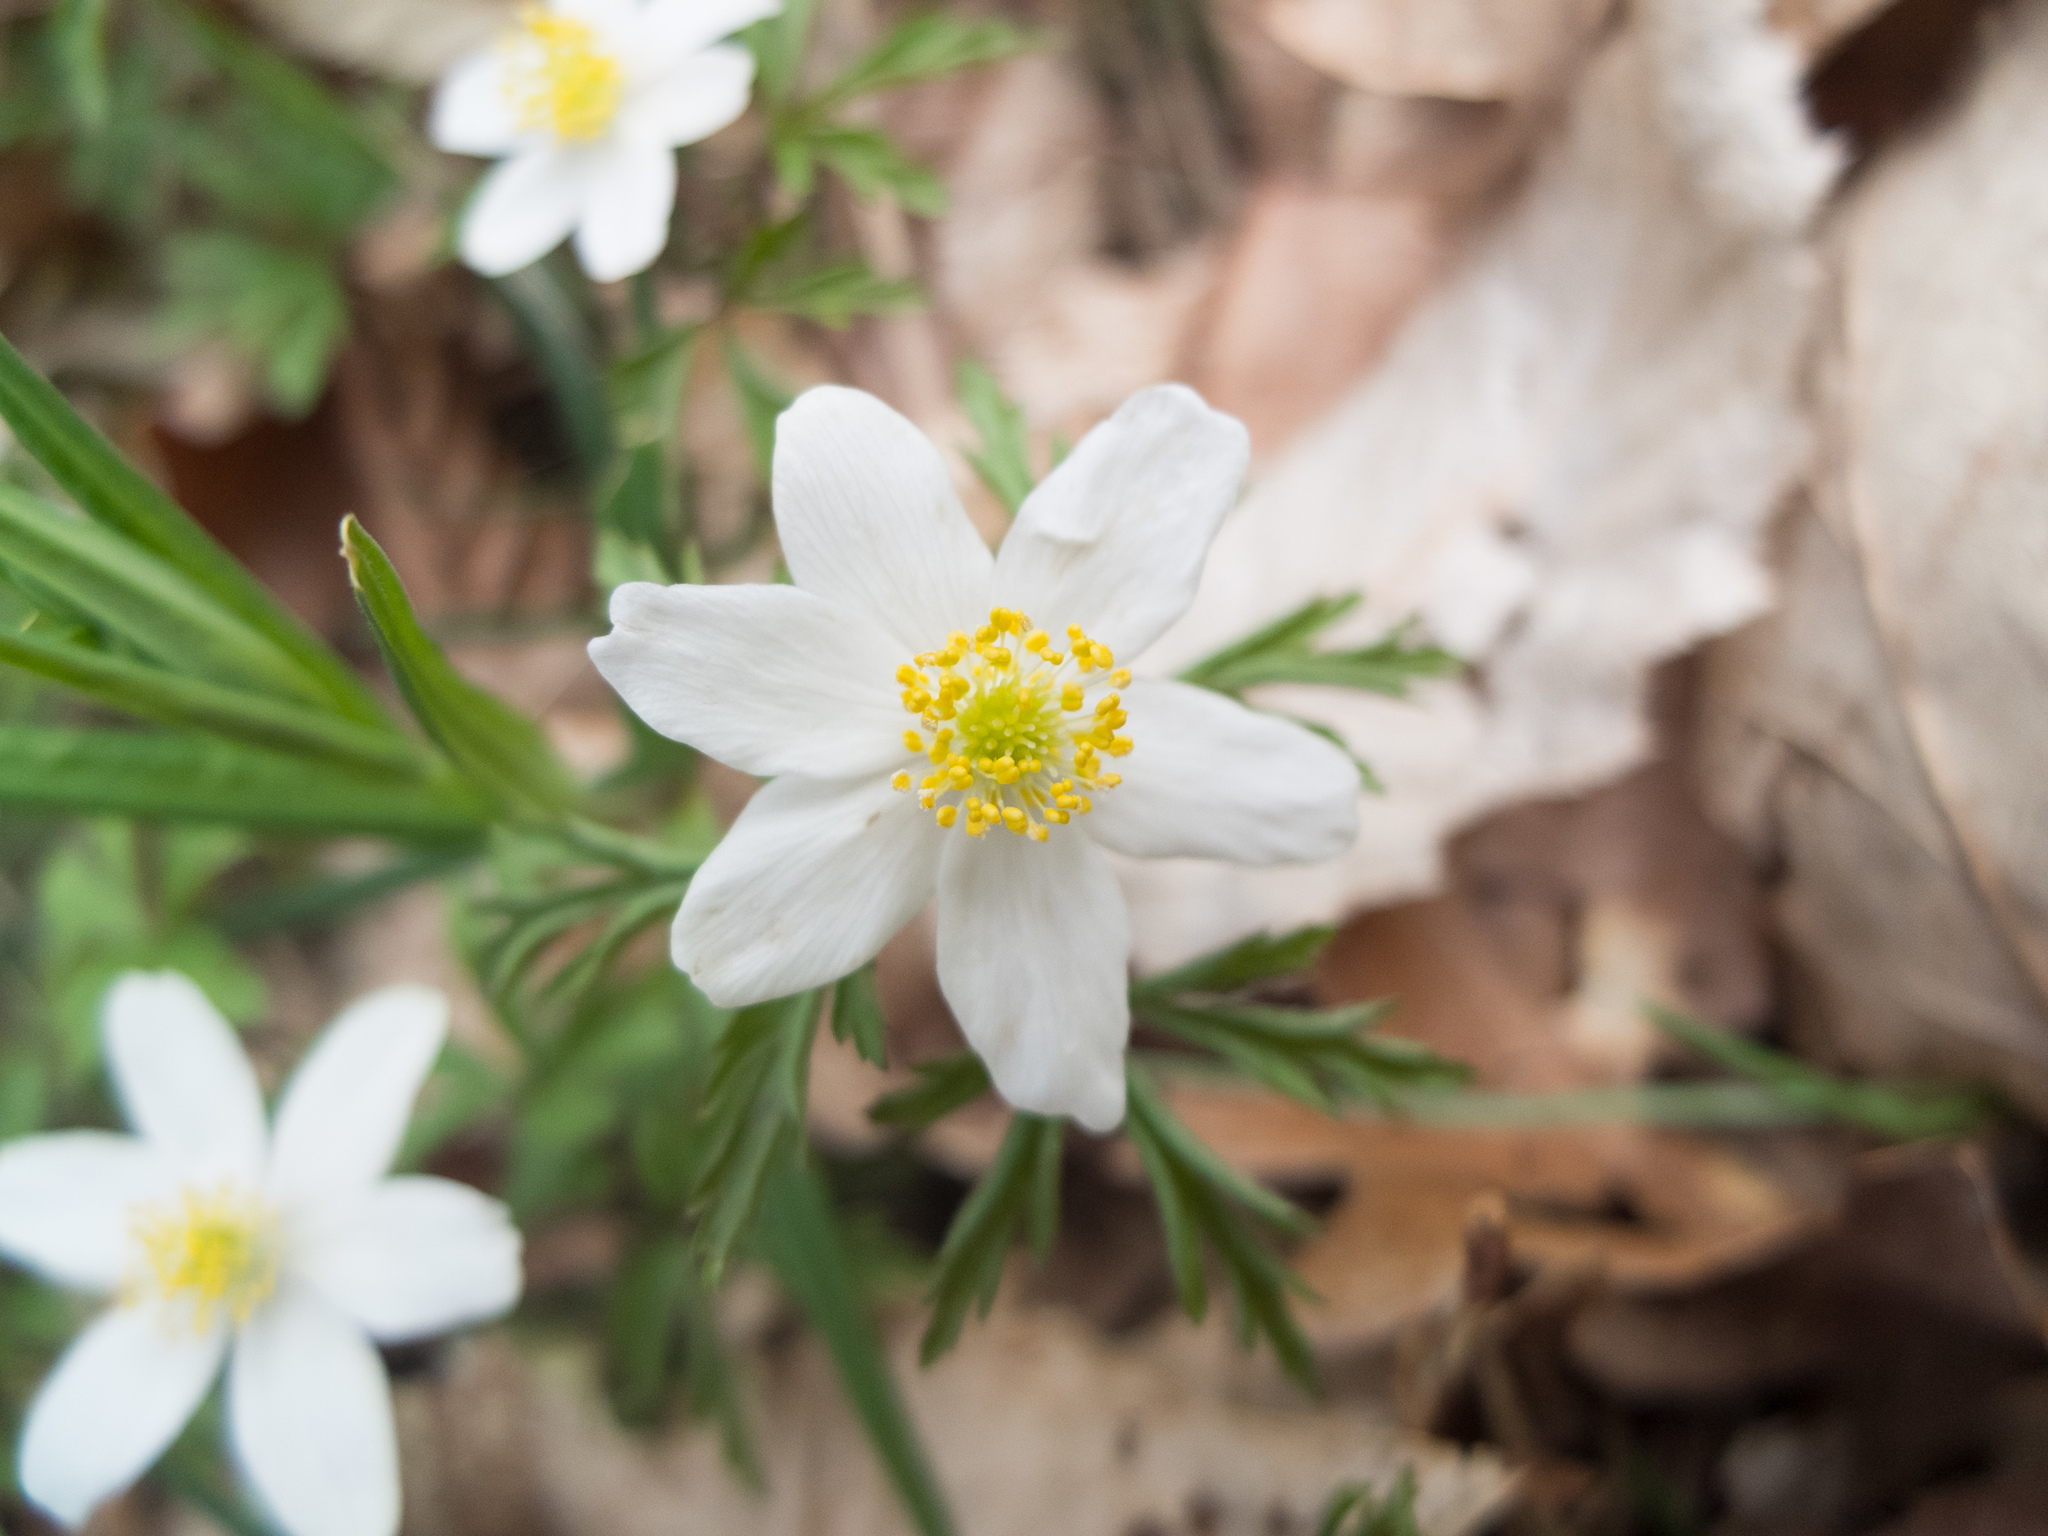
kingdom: Plantae
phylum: Tracheophyta
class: Magnoliopsida
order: Ranunculales
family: Ranunculaceae
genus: Anemone
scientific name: Anemone nemorosa
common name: Wood anemone
